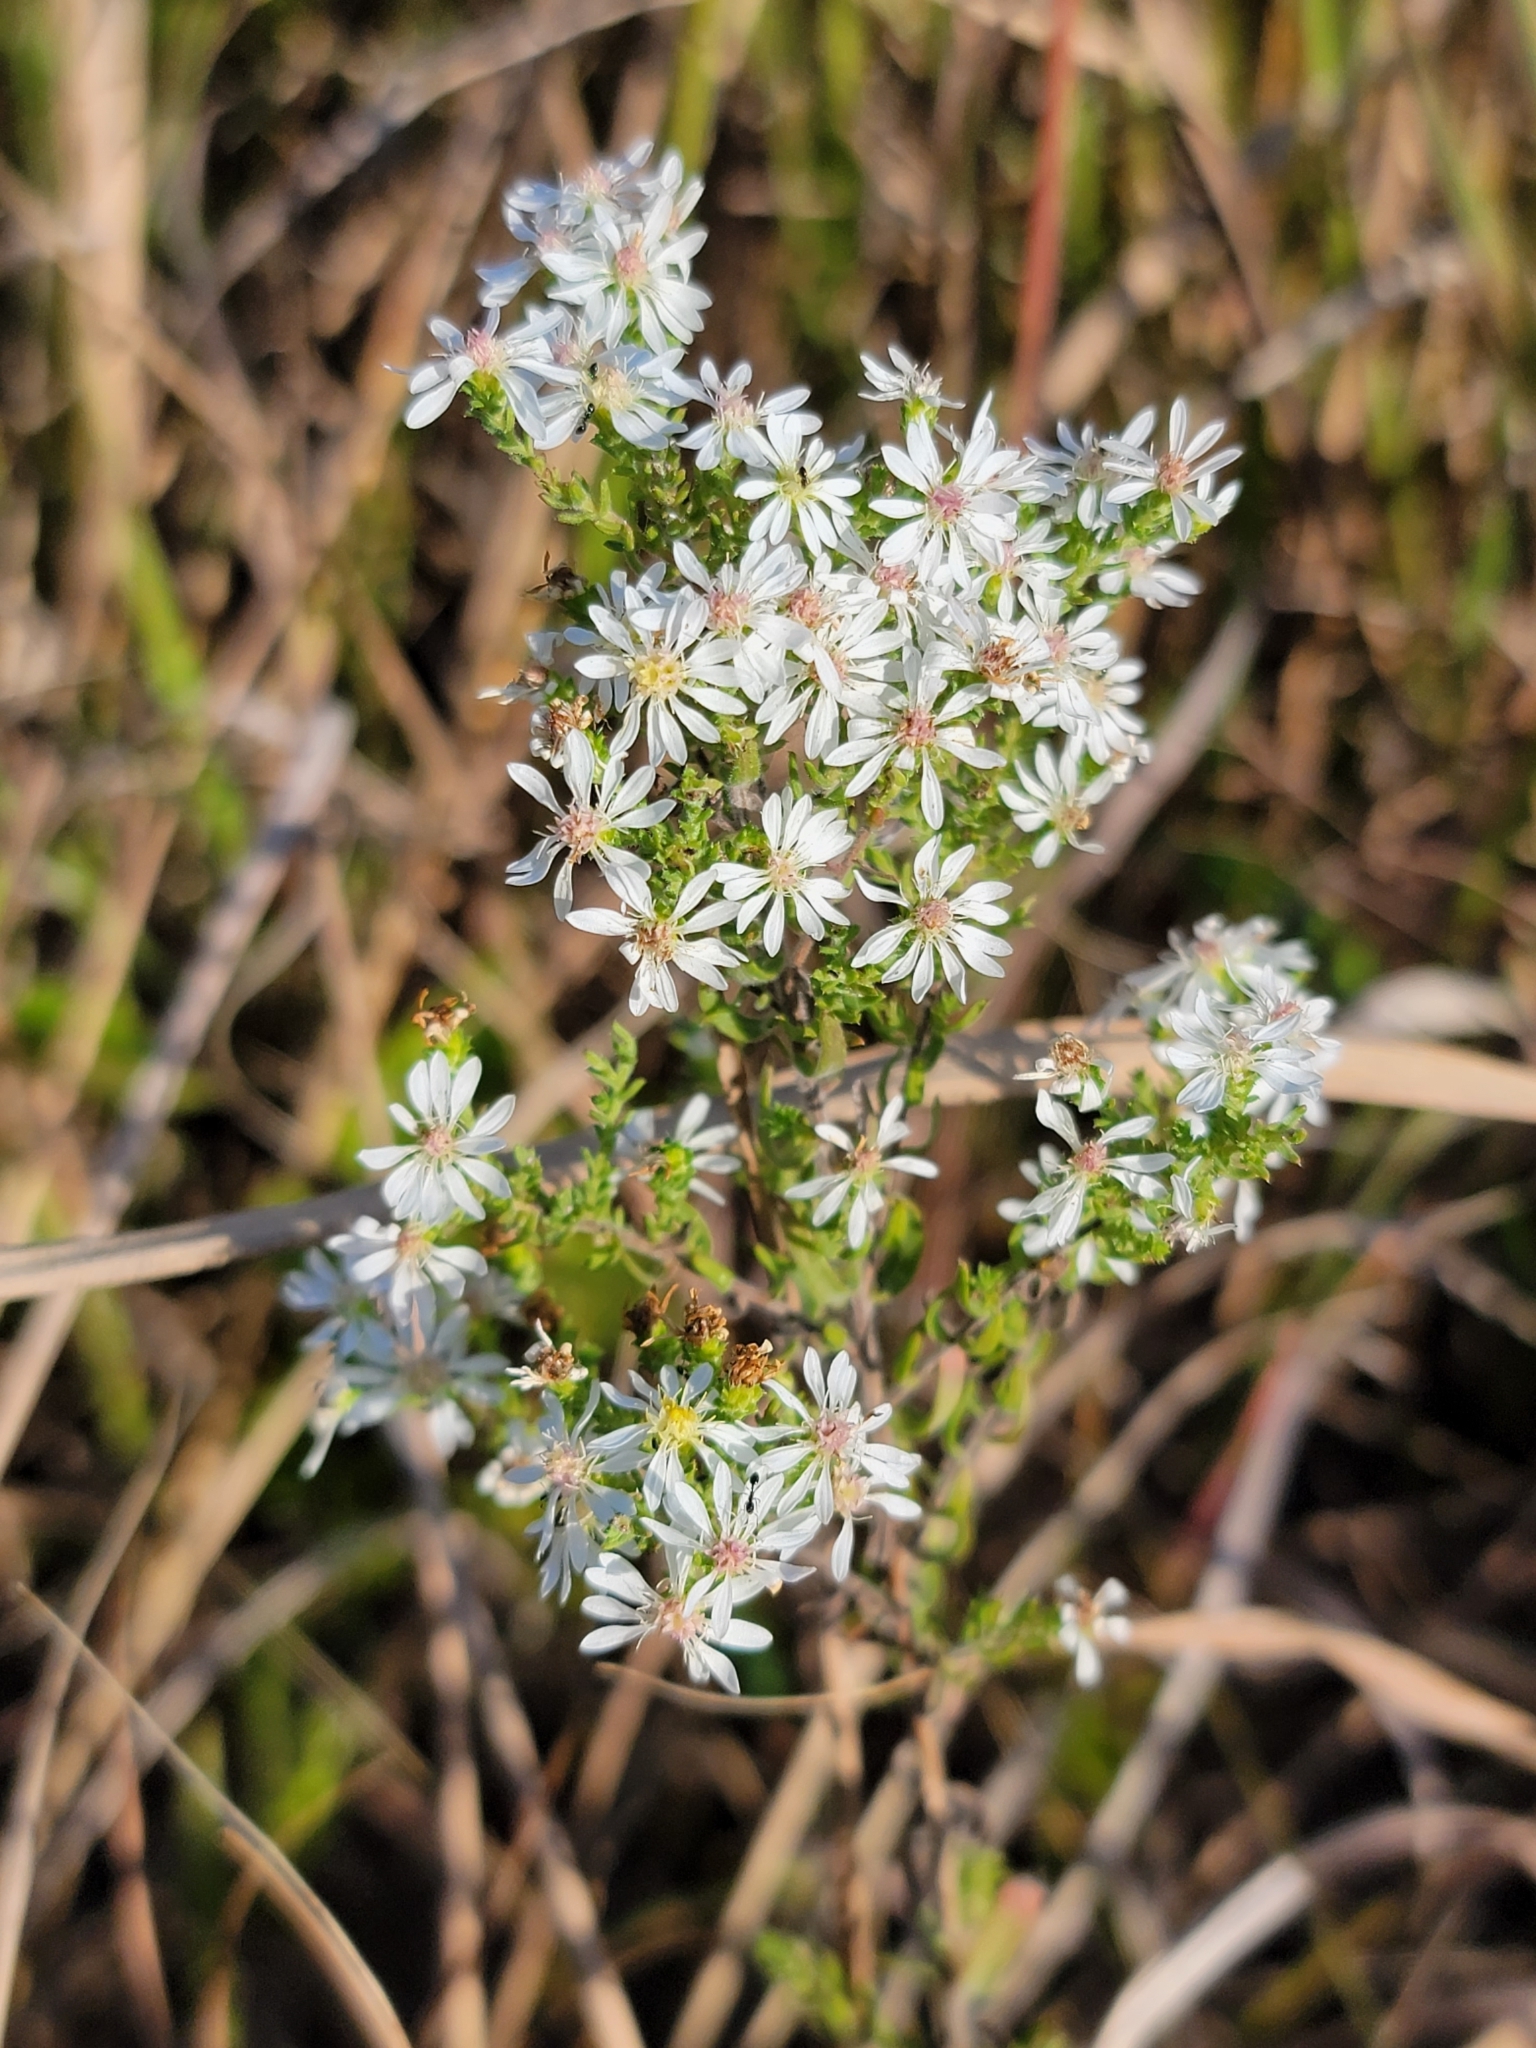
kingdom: Plantae
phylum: Tracheophyta
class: Magnoliopsida
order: Asterales
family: Asteraceae
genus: Symphyotrichum
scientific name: Symphyotrichum ericoides
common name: Heath aster
